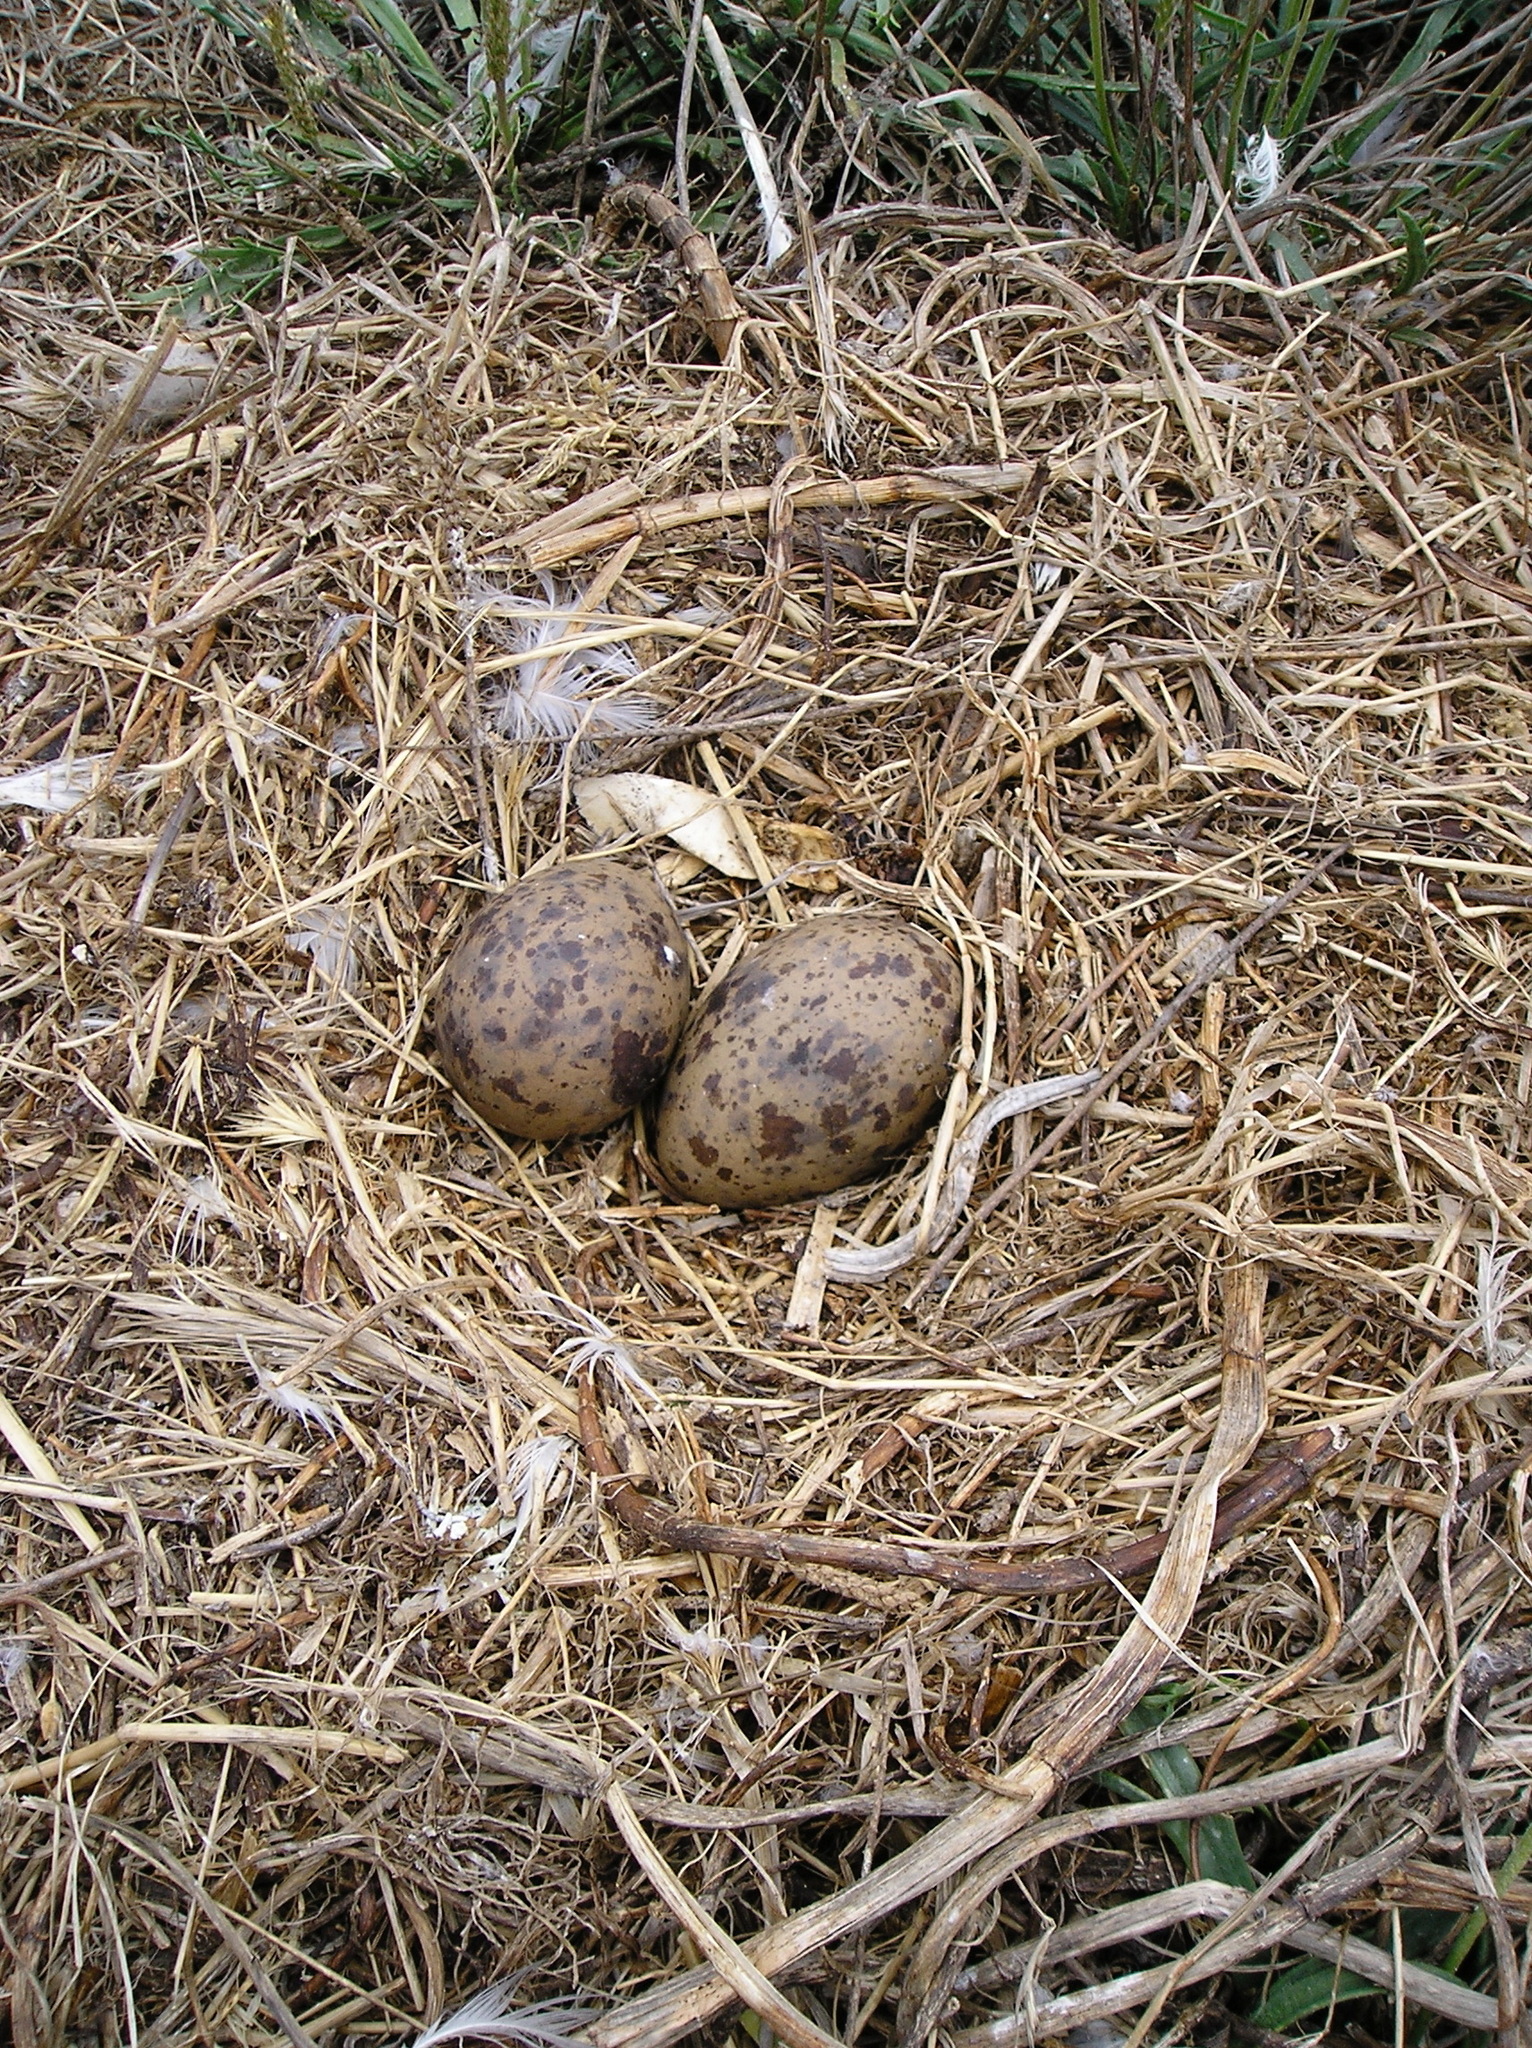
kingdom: Animalia
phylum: Chordata
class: Aves
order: Charadriiformes
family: Laridae
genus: Larus
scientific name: Larus occidentalis
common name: Western gull
